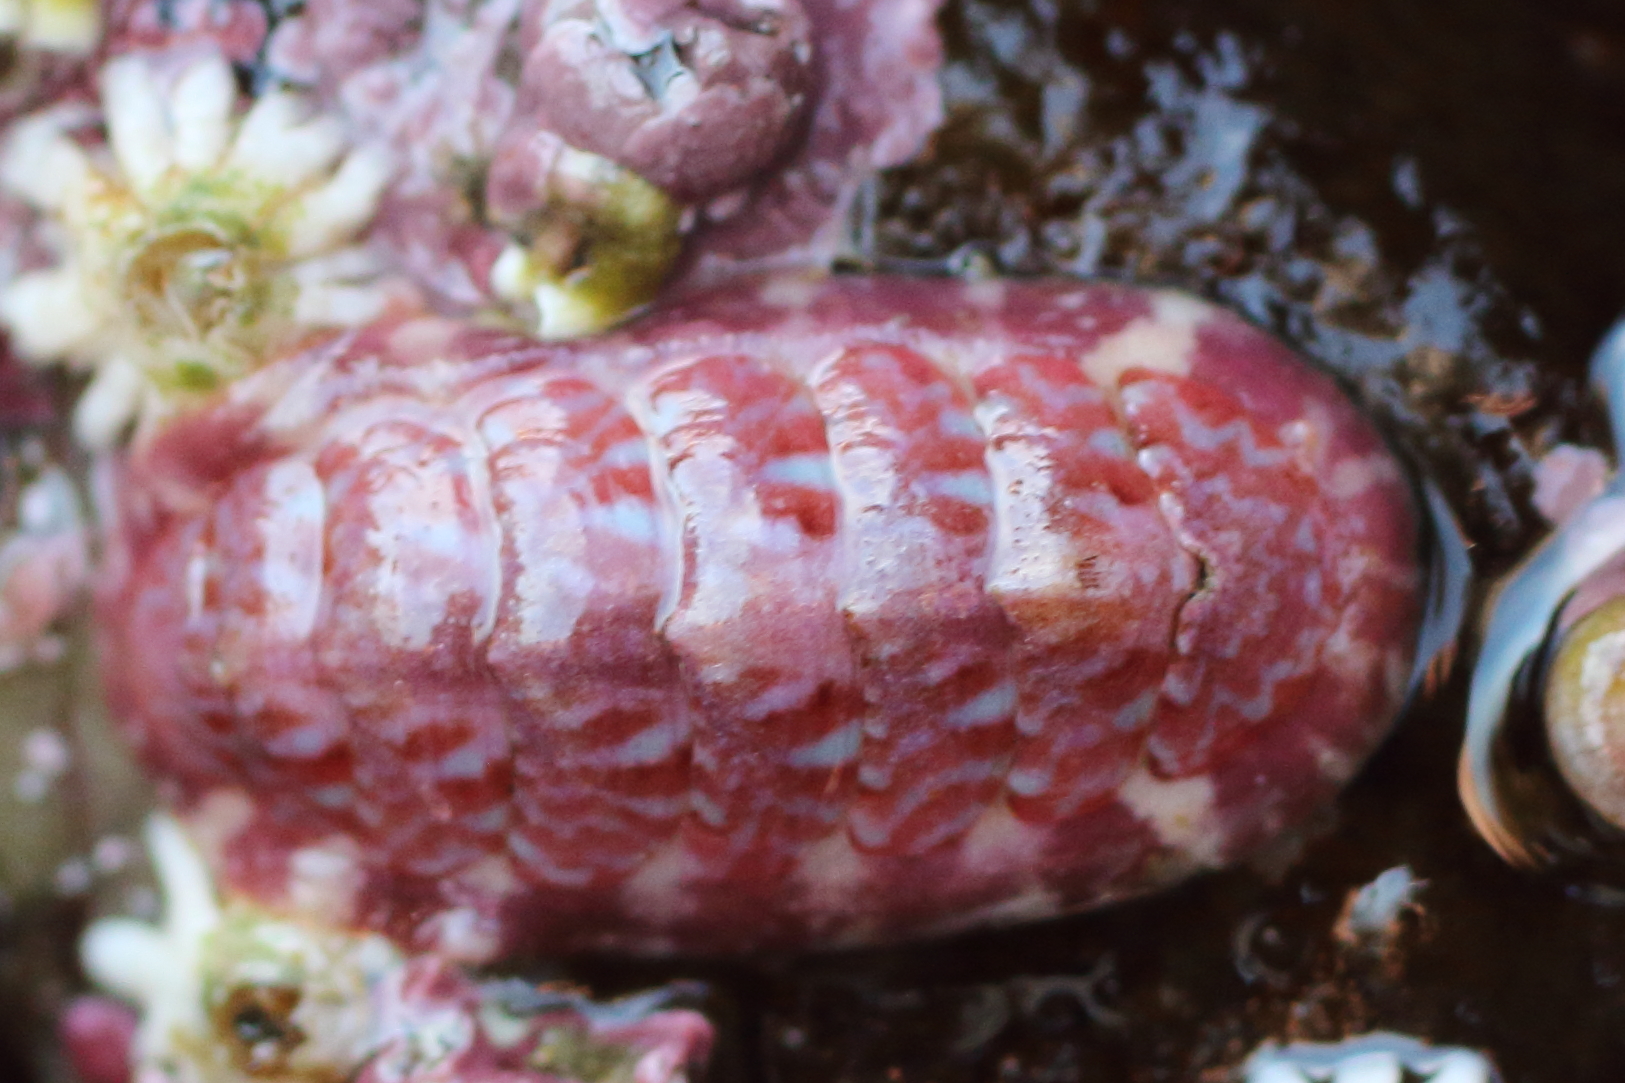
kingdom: Animalia
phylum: Mollusca
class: Polyplacophora
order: Chitonida
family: Tonicellidae
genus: Tonicella
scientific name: Tonicella venusta
